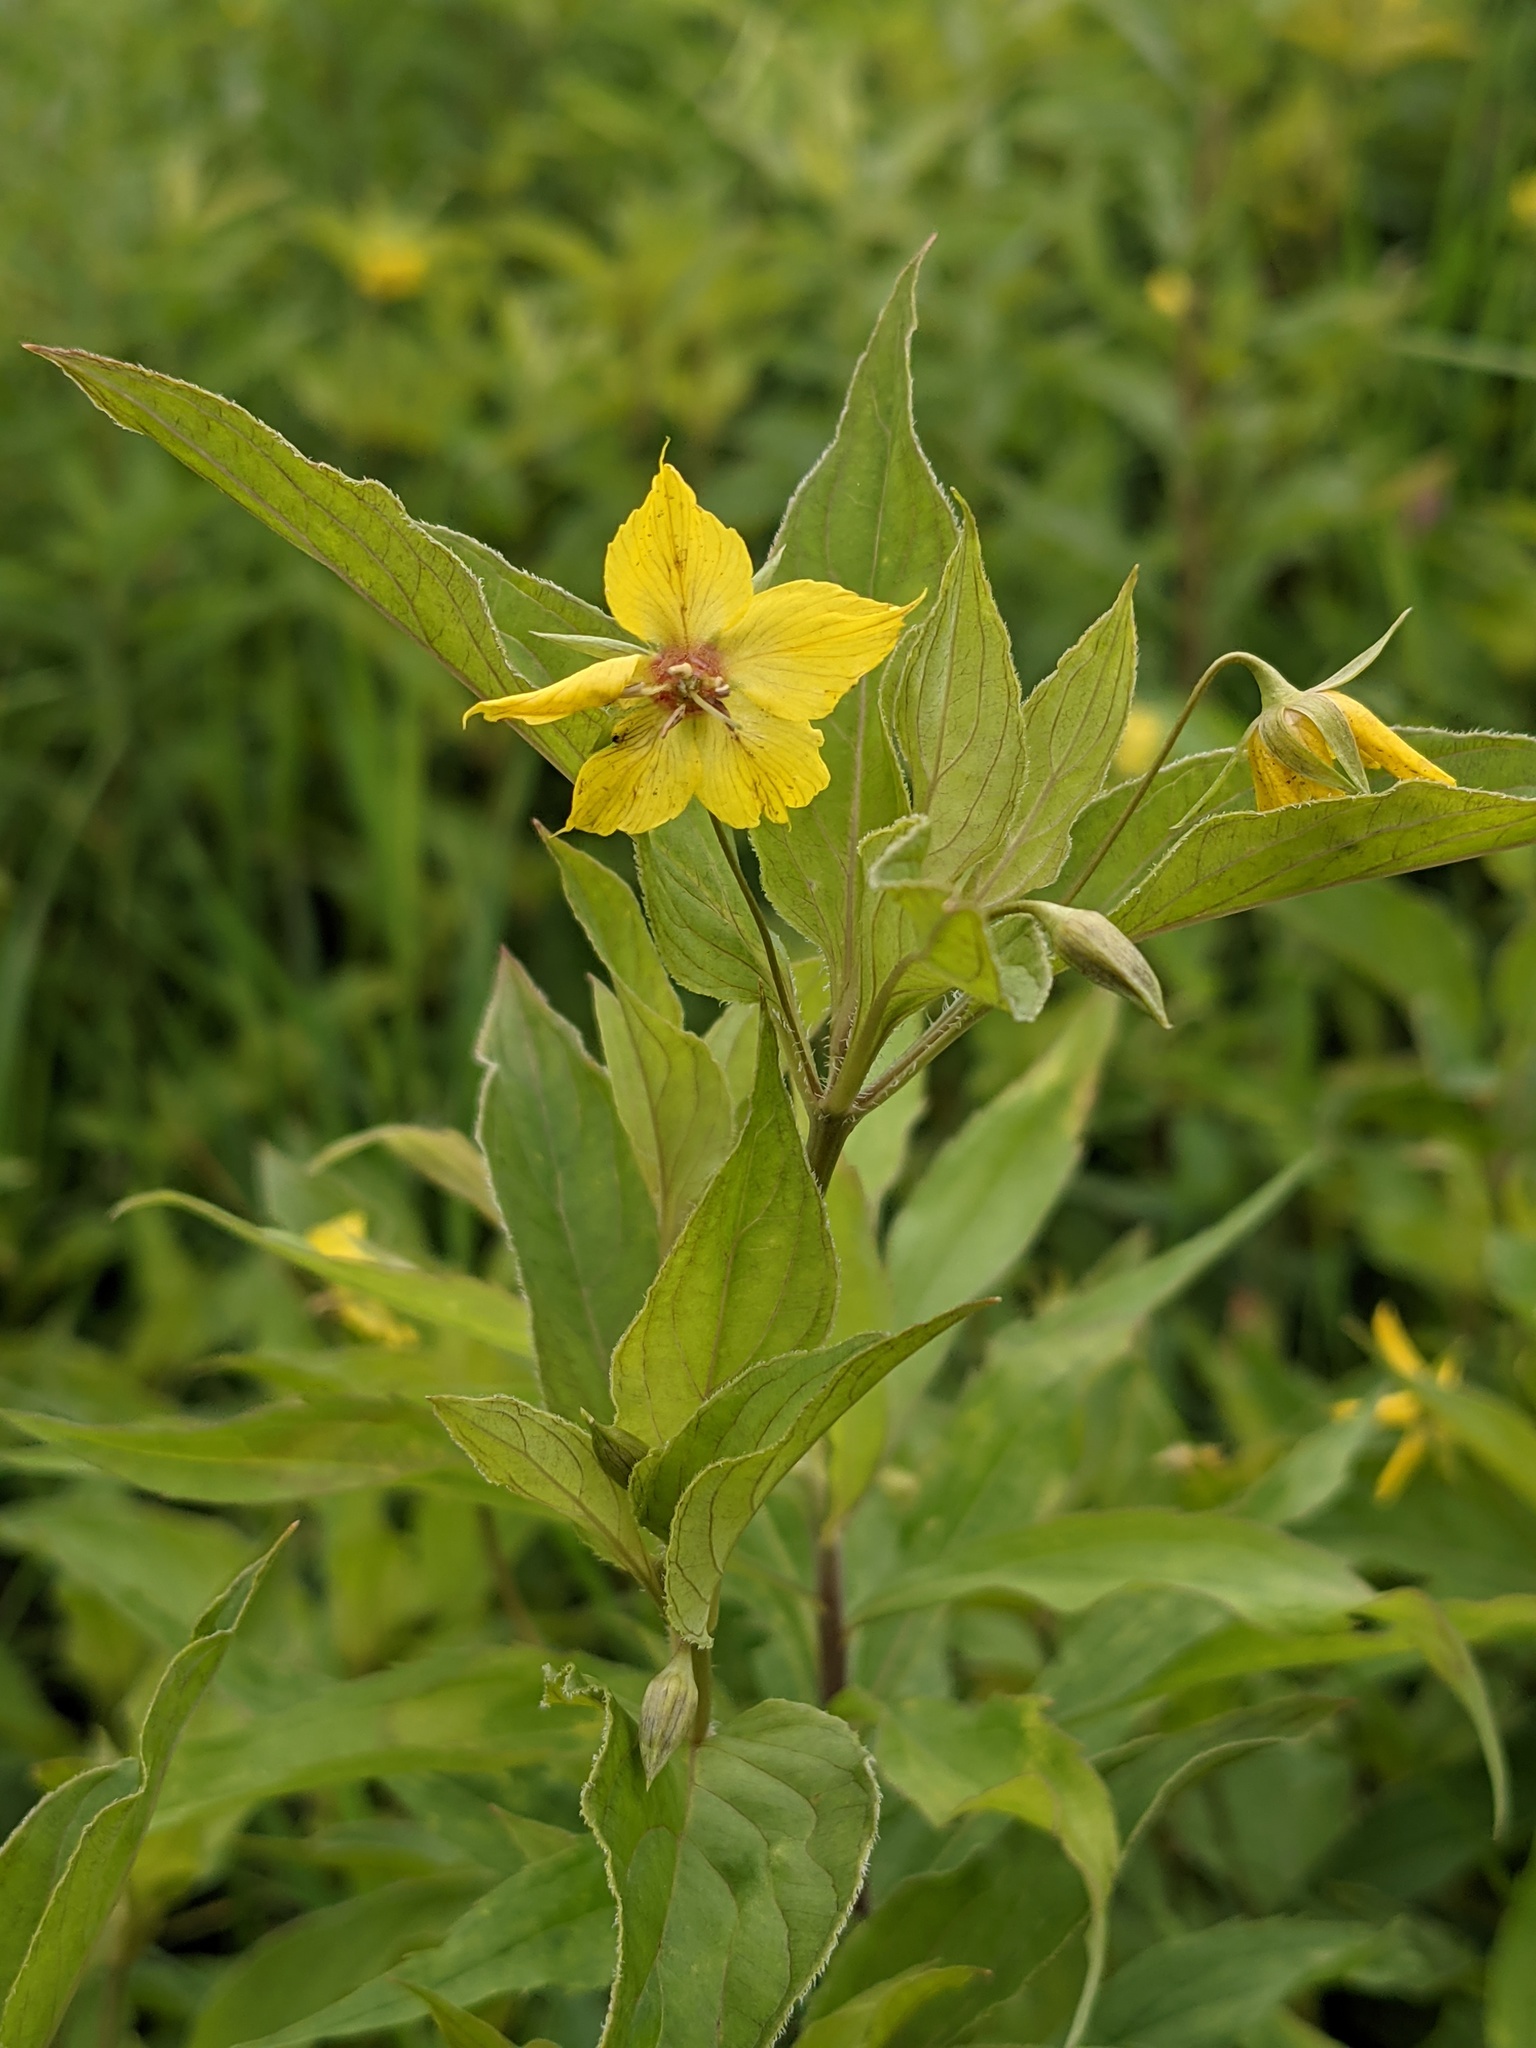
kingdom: Plantae
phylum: Tracheophyta
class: Magnoliopsida
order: Ericales
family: Primulaceae
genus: Lysimachia
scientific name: Lysimachia ciliata
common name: Fringed loosestrife
